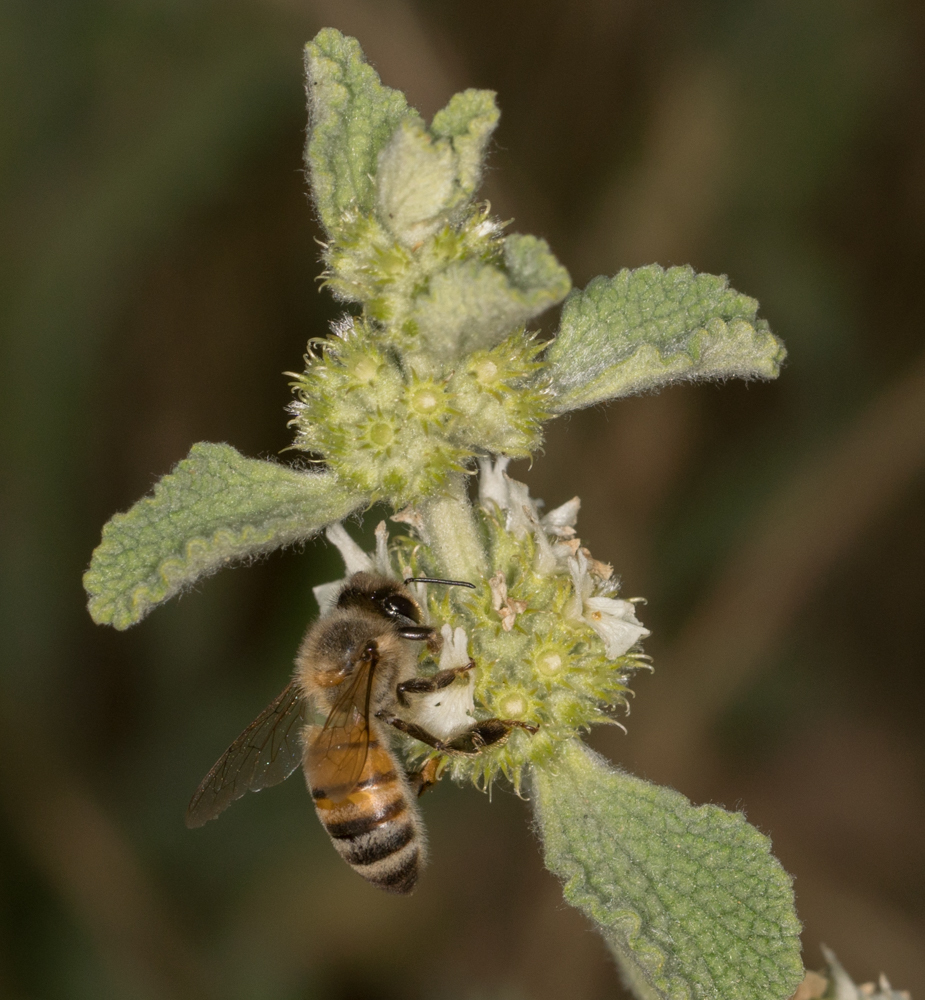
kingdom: Animalia
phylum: Arthropoda
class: Insecta
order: Hymenoptera
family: Apidae
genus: Apis
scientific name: Apis mellifera
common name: Honey bee
